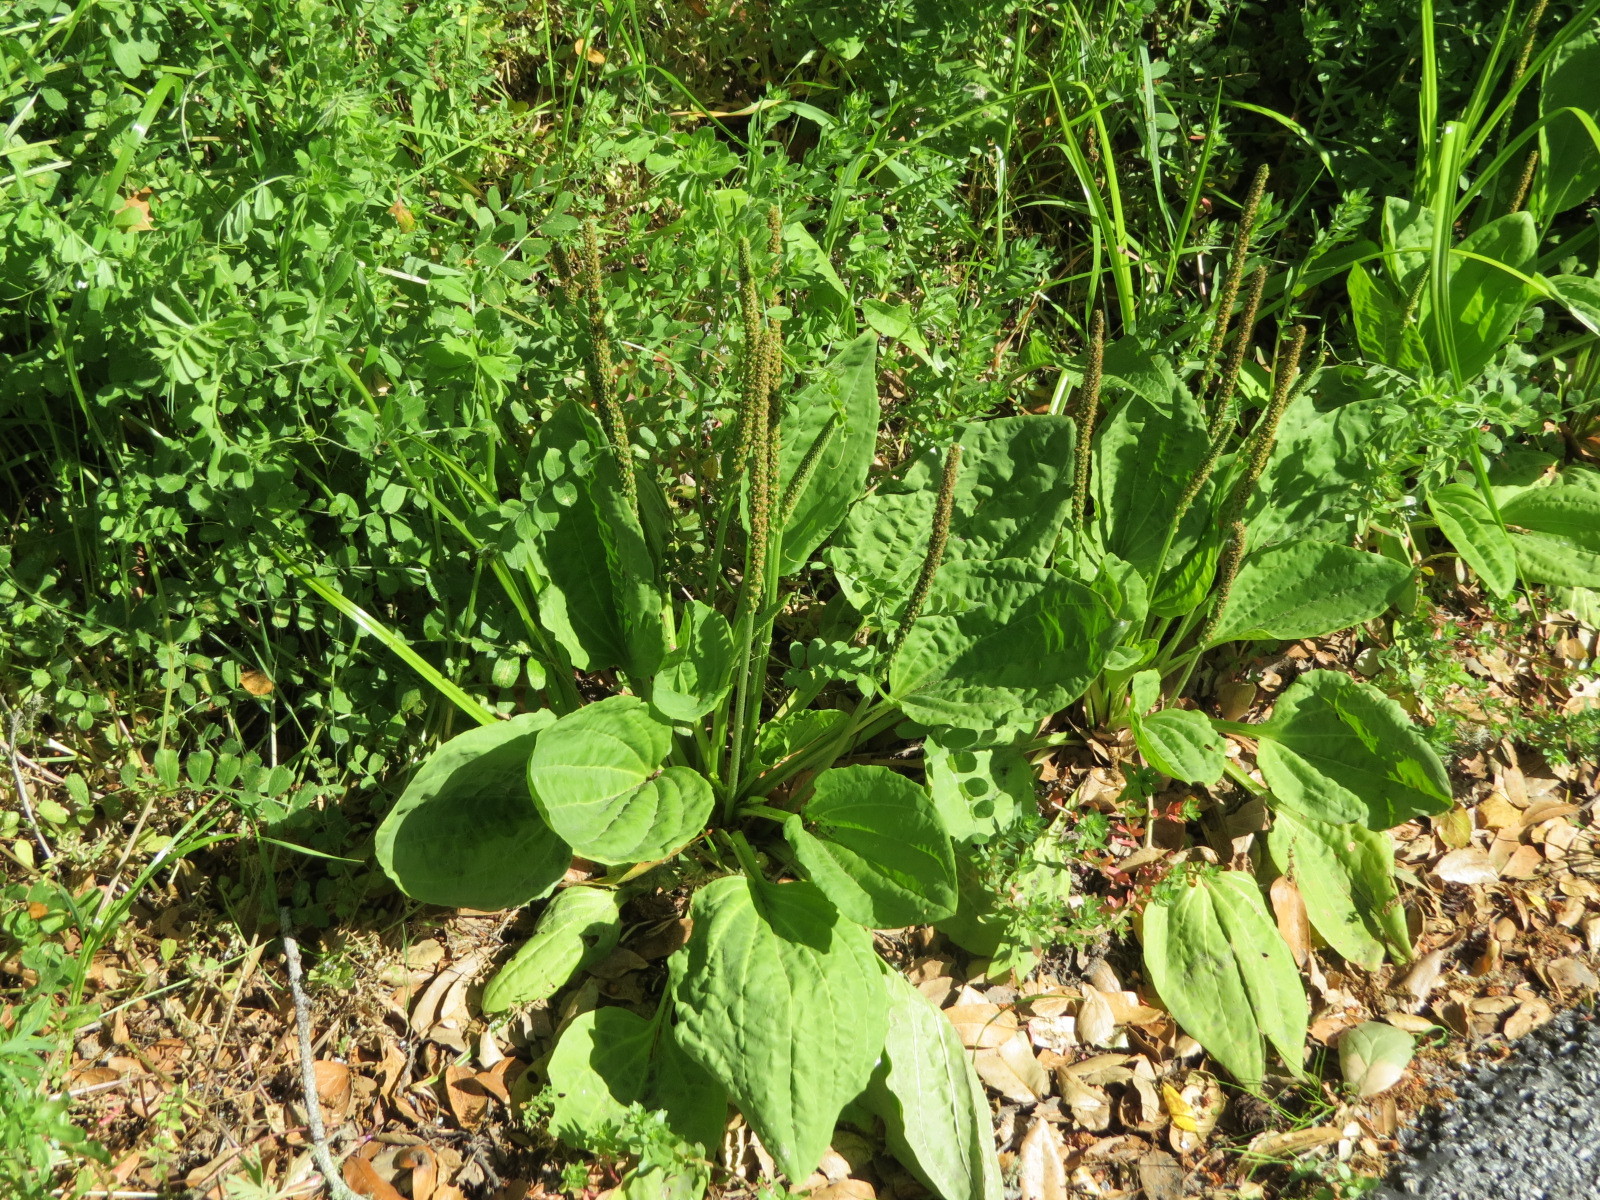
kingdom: Plantae
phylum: Tracheophyta
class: Magnoliopsida
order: Lamiales
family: Plantaginaceae
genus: Plantago
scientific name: Plantago major
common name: Common plantain
